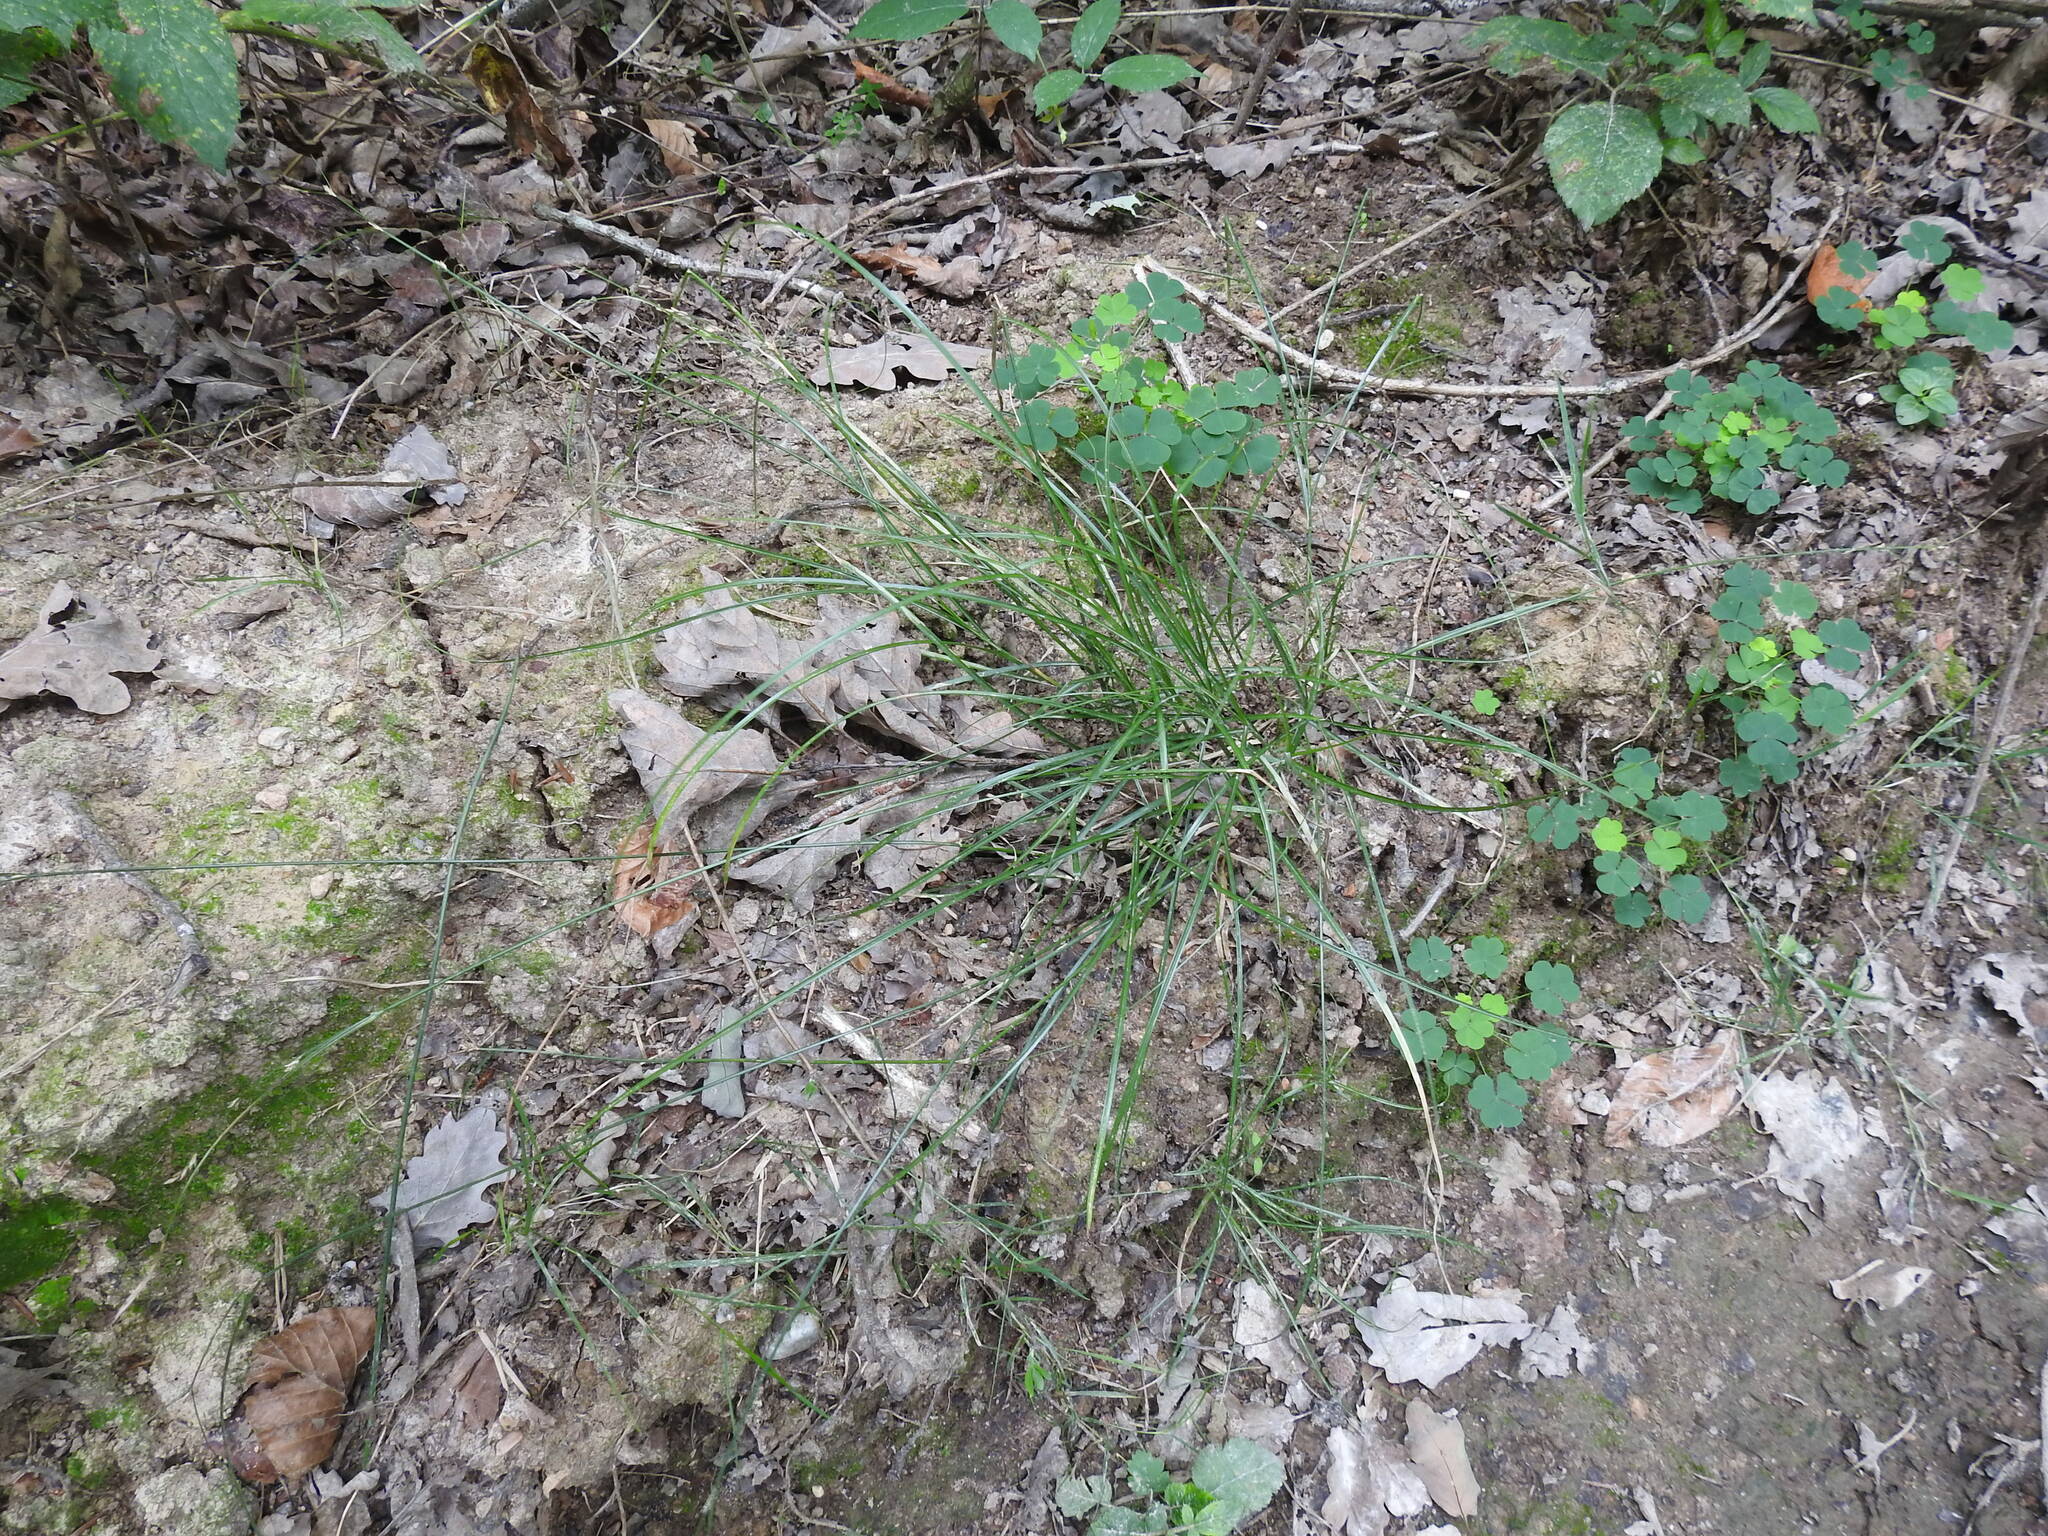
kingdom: Plantae
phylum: Tracheophyta
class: Liliopsida
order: Poales
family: Cyperaceae
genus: Carex
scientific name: Carex remota
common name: Remote sedge
